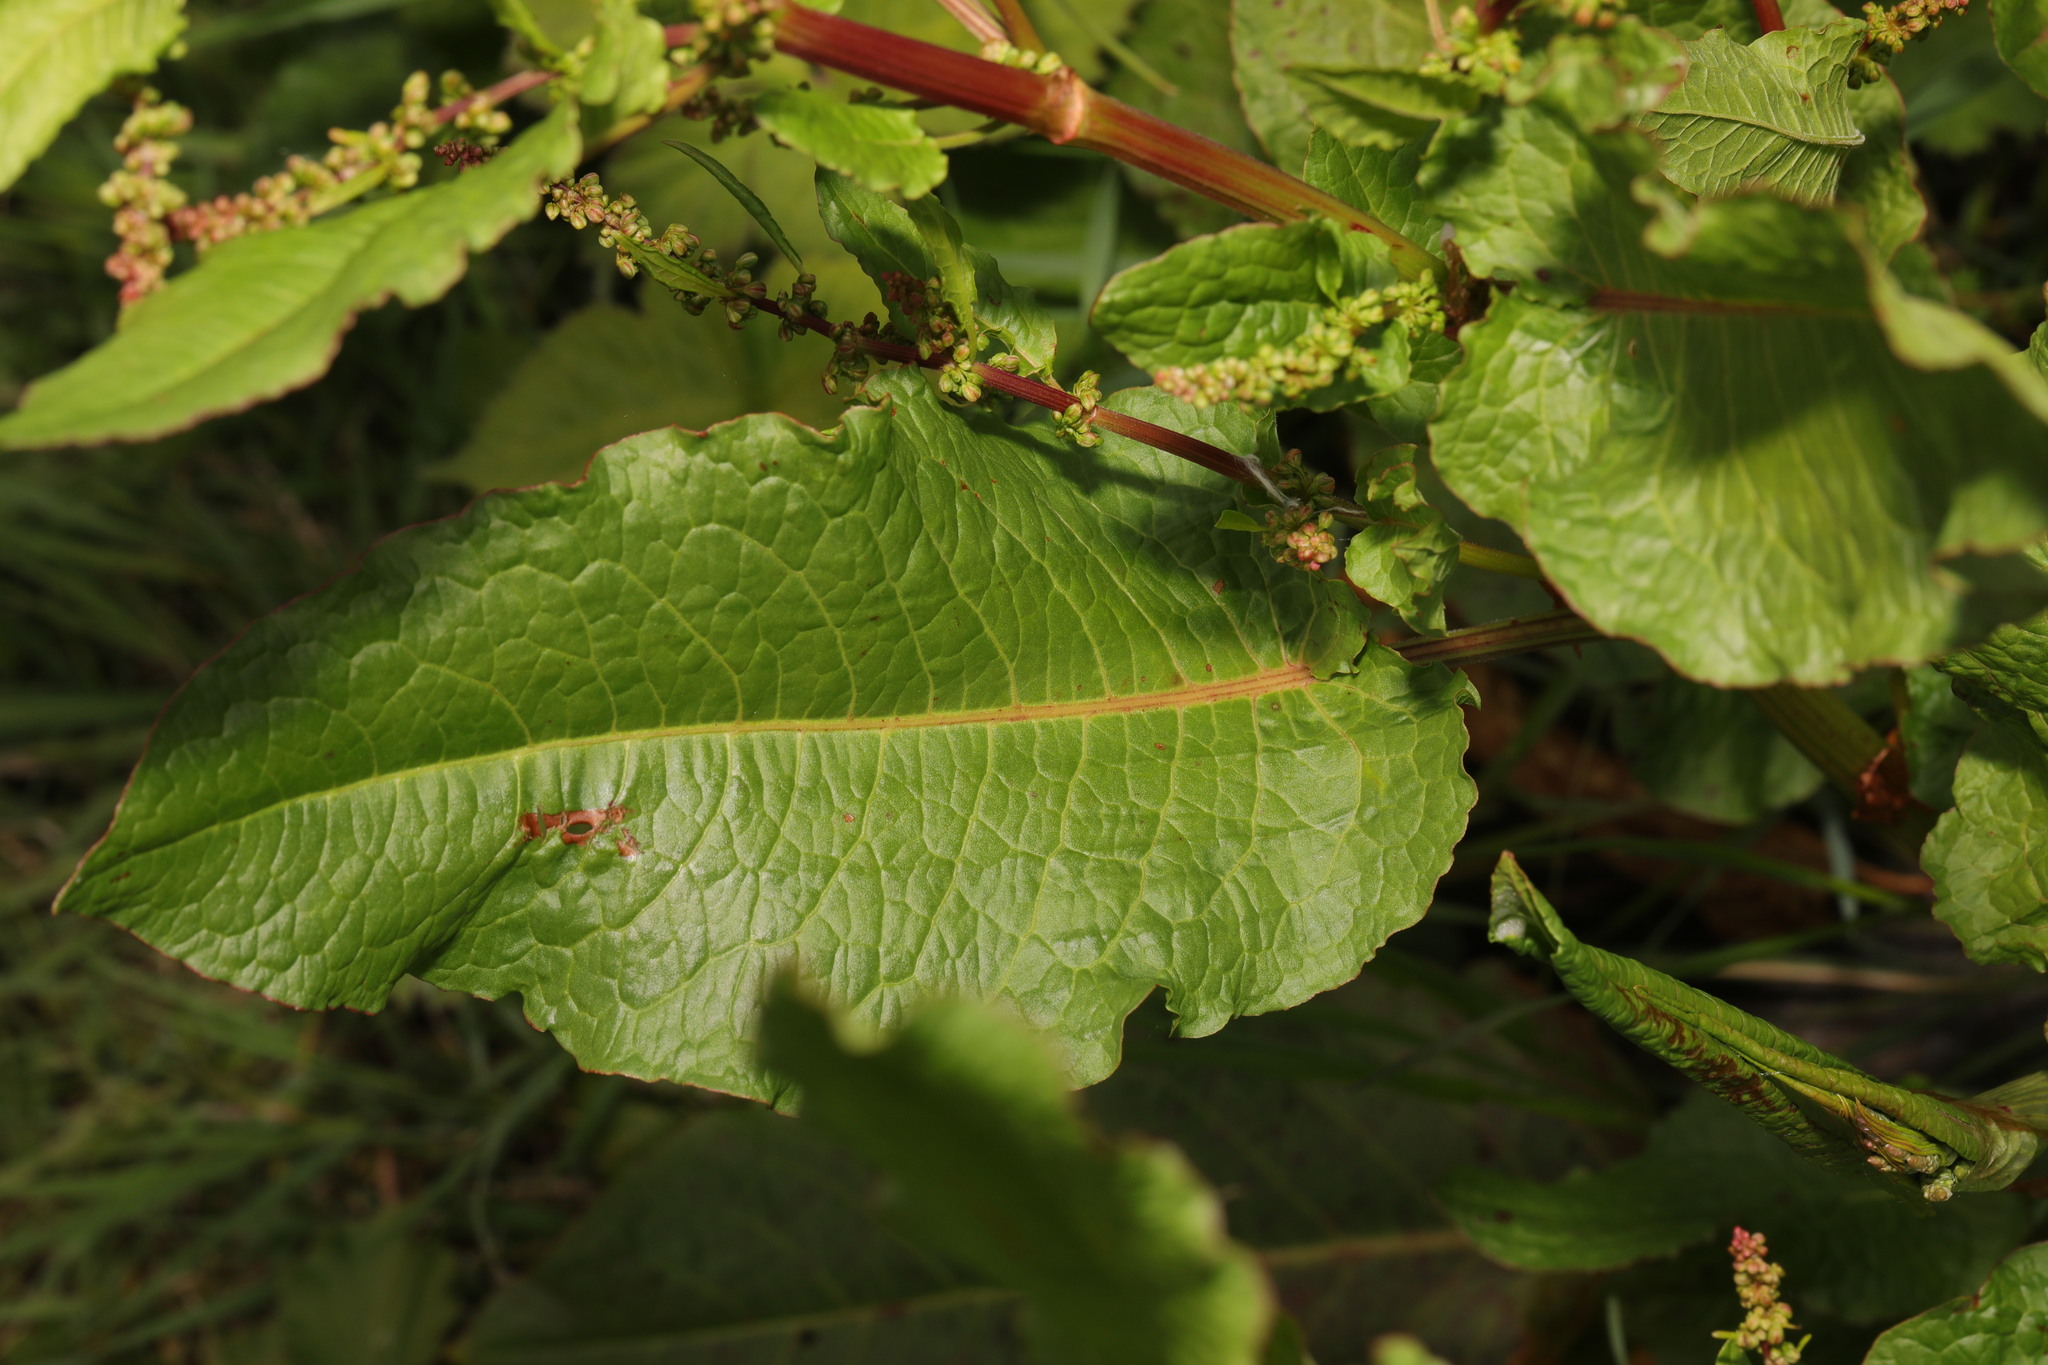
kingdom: Plantae
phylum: Tracheophyta
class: Magnoliopsida
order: Caryophyllales
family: Polygonaceae
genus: Rumex
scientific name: Rumex obtusifolius
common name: Bitter dock
